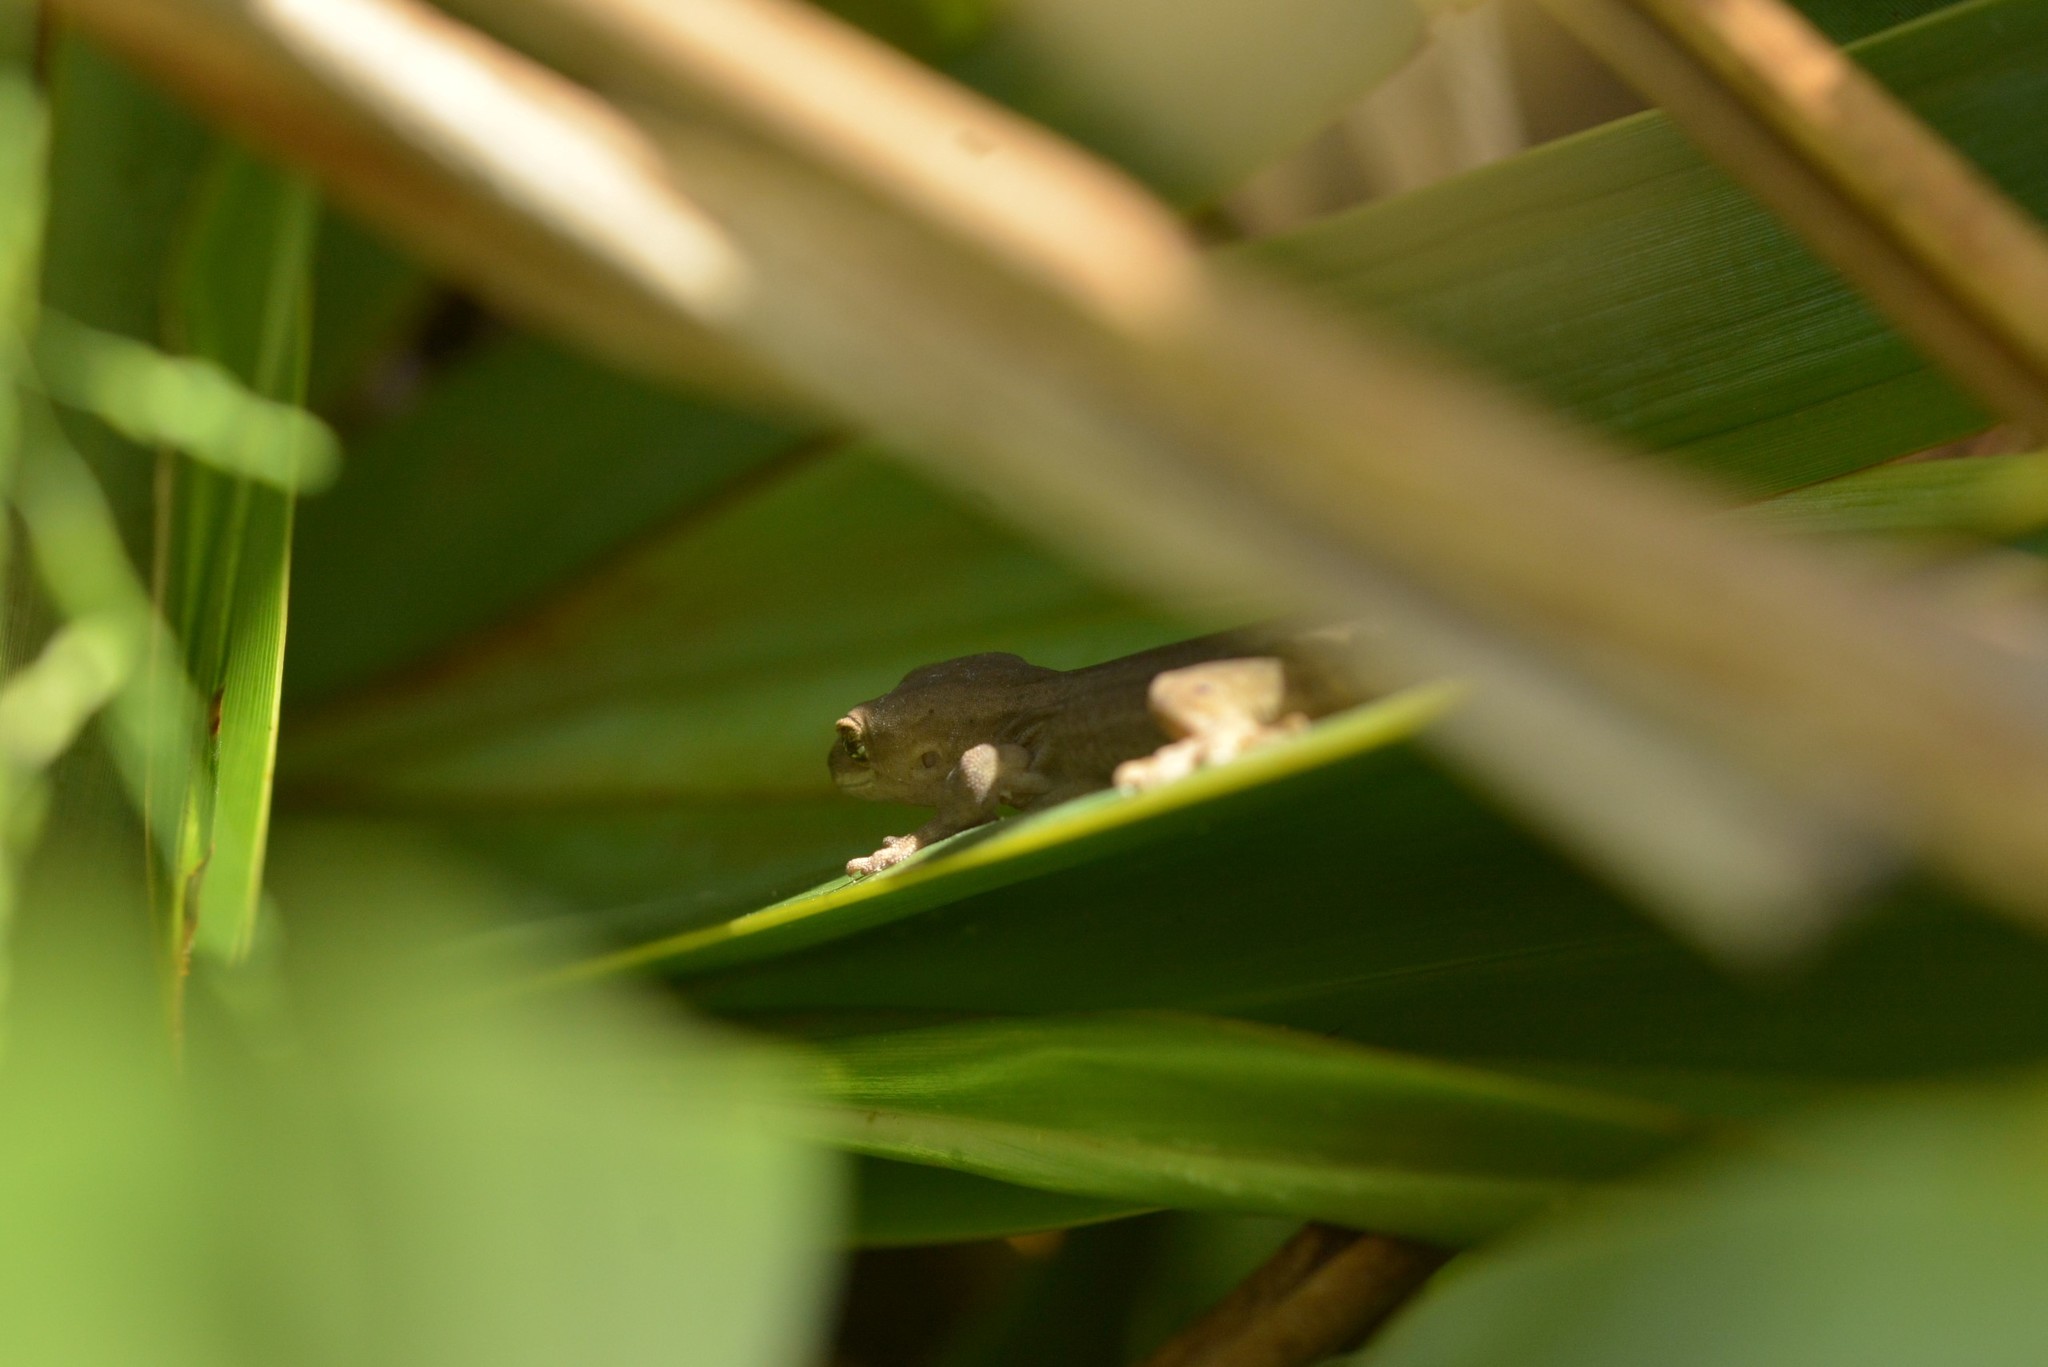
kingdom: Animalia
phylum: Chordata
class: Squamata
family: Diplodactylidae
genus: Woodworthia
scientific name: Woodworthia chrysosiretica
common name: Gold-striped gecko
